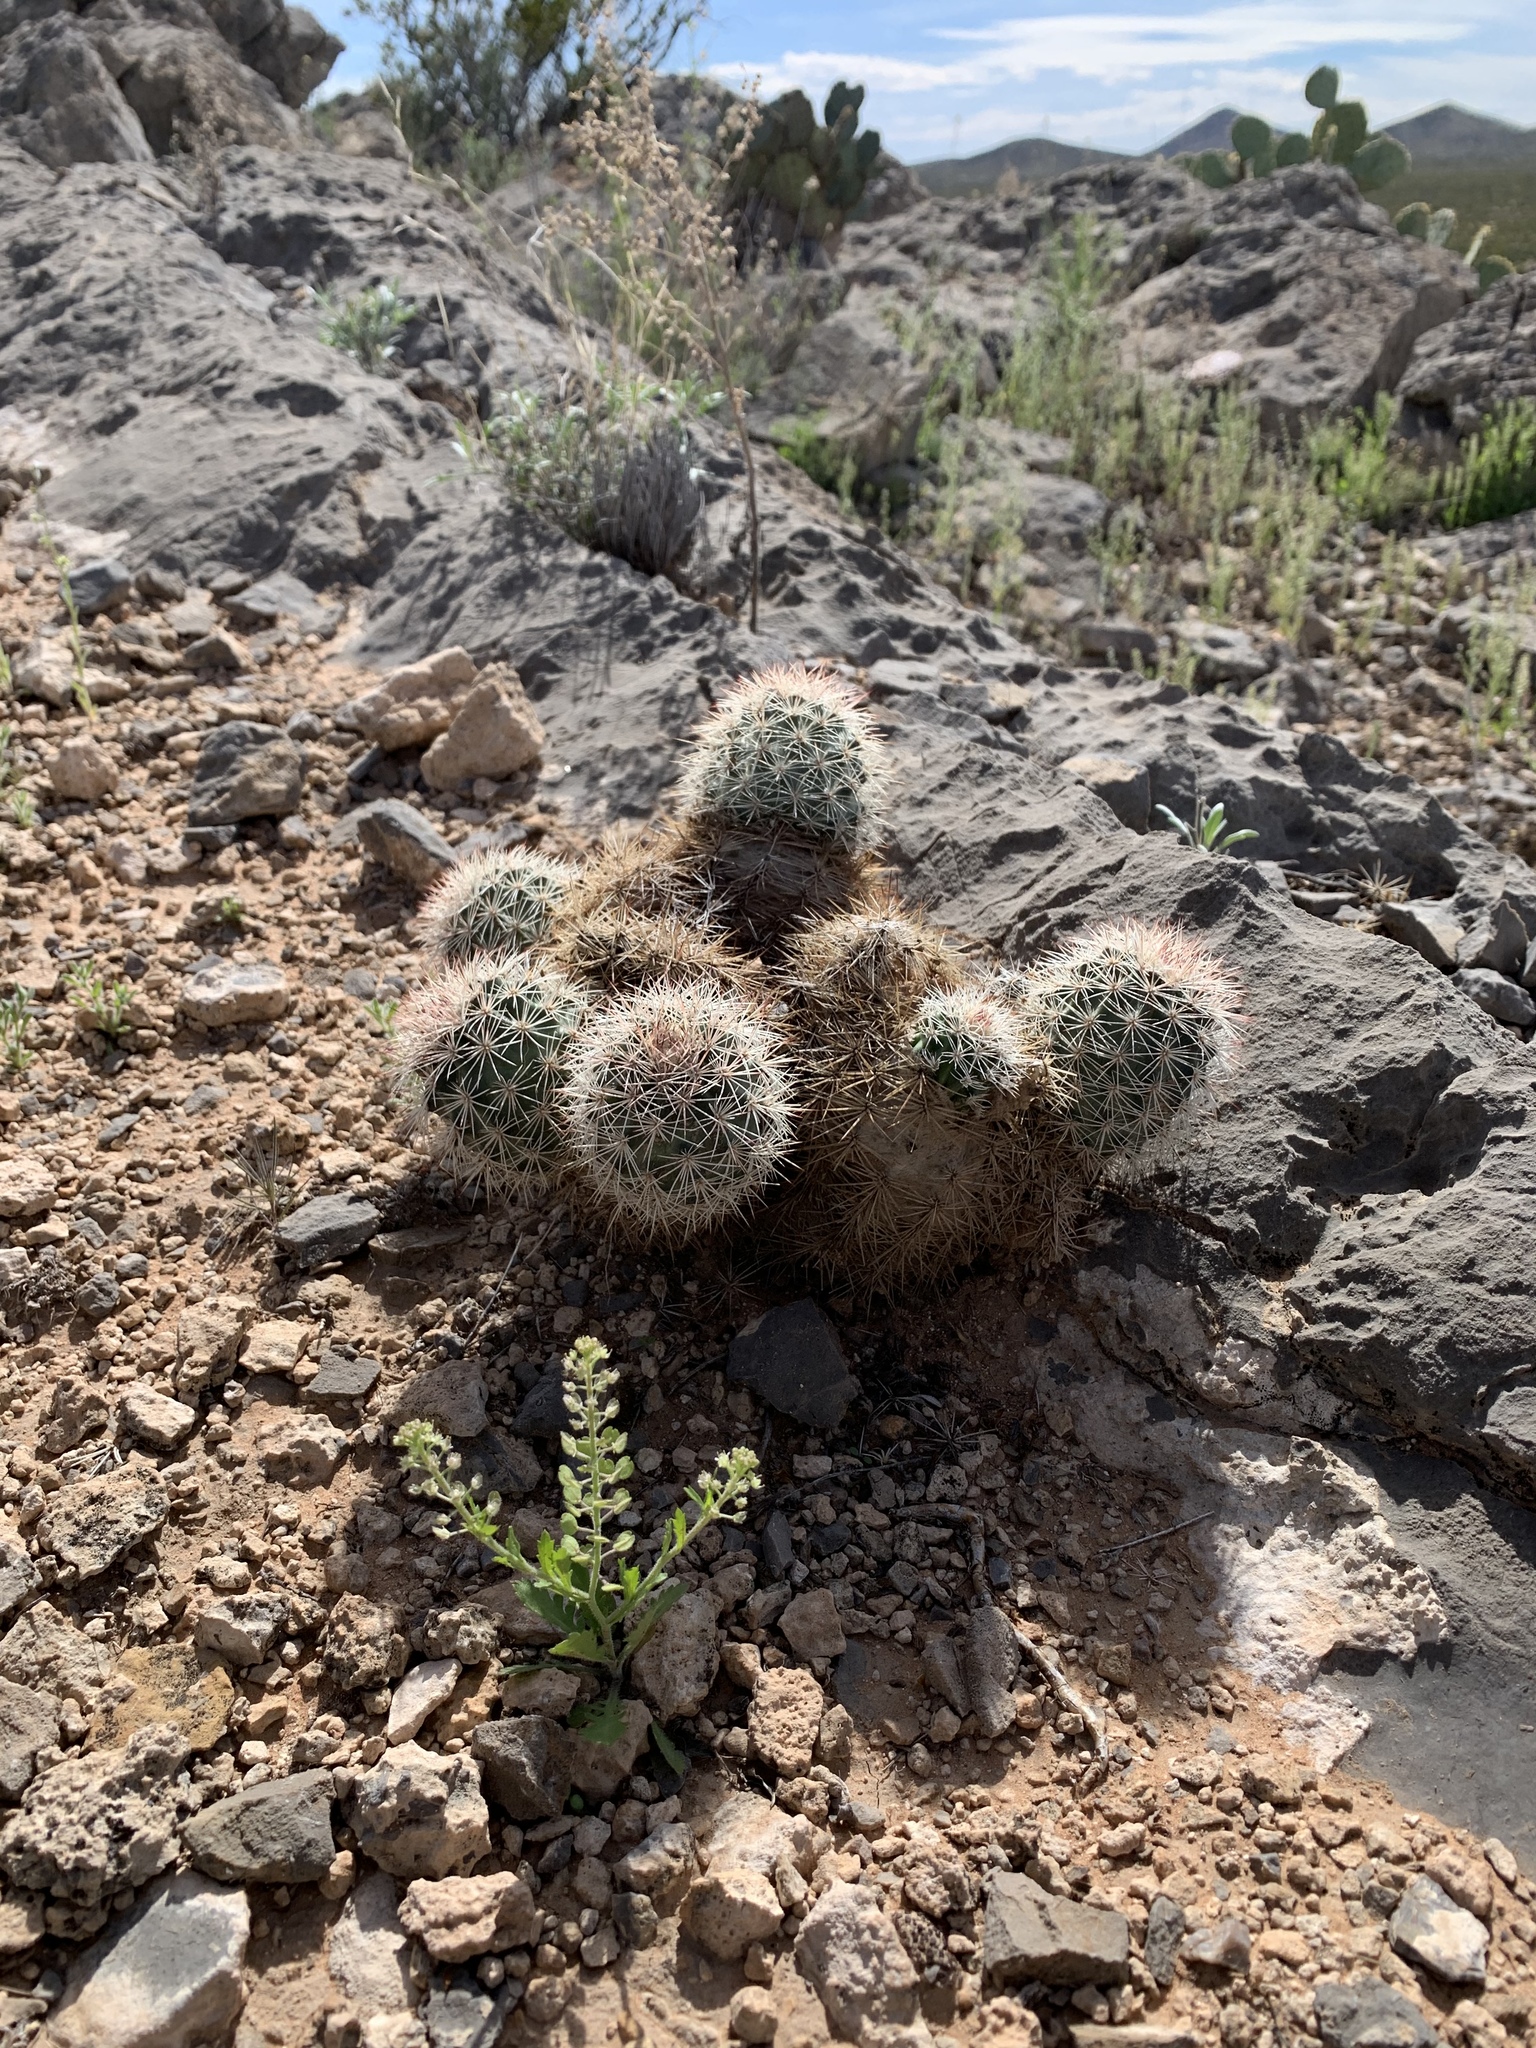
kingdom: Plantae
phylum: Tracheophyta
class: Magnoliopsida
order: Caryophyllales
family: Cactaceae
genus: Echinocereus
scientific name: Echinocereus dasyacanthus
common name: Spiny hedgehog cactus
